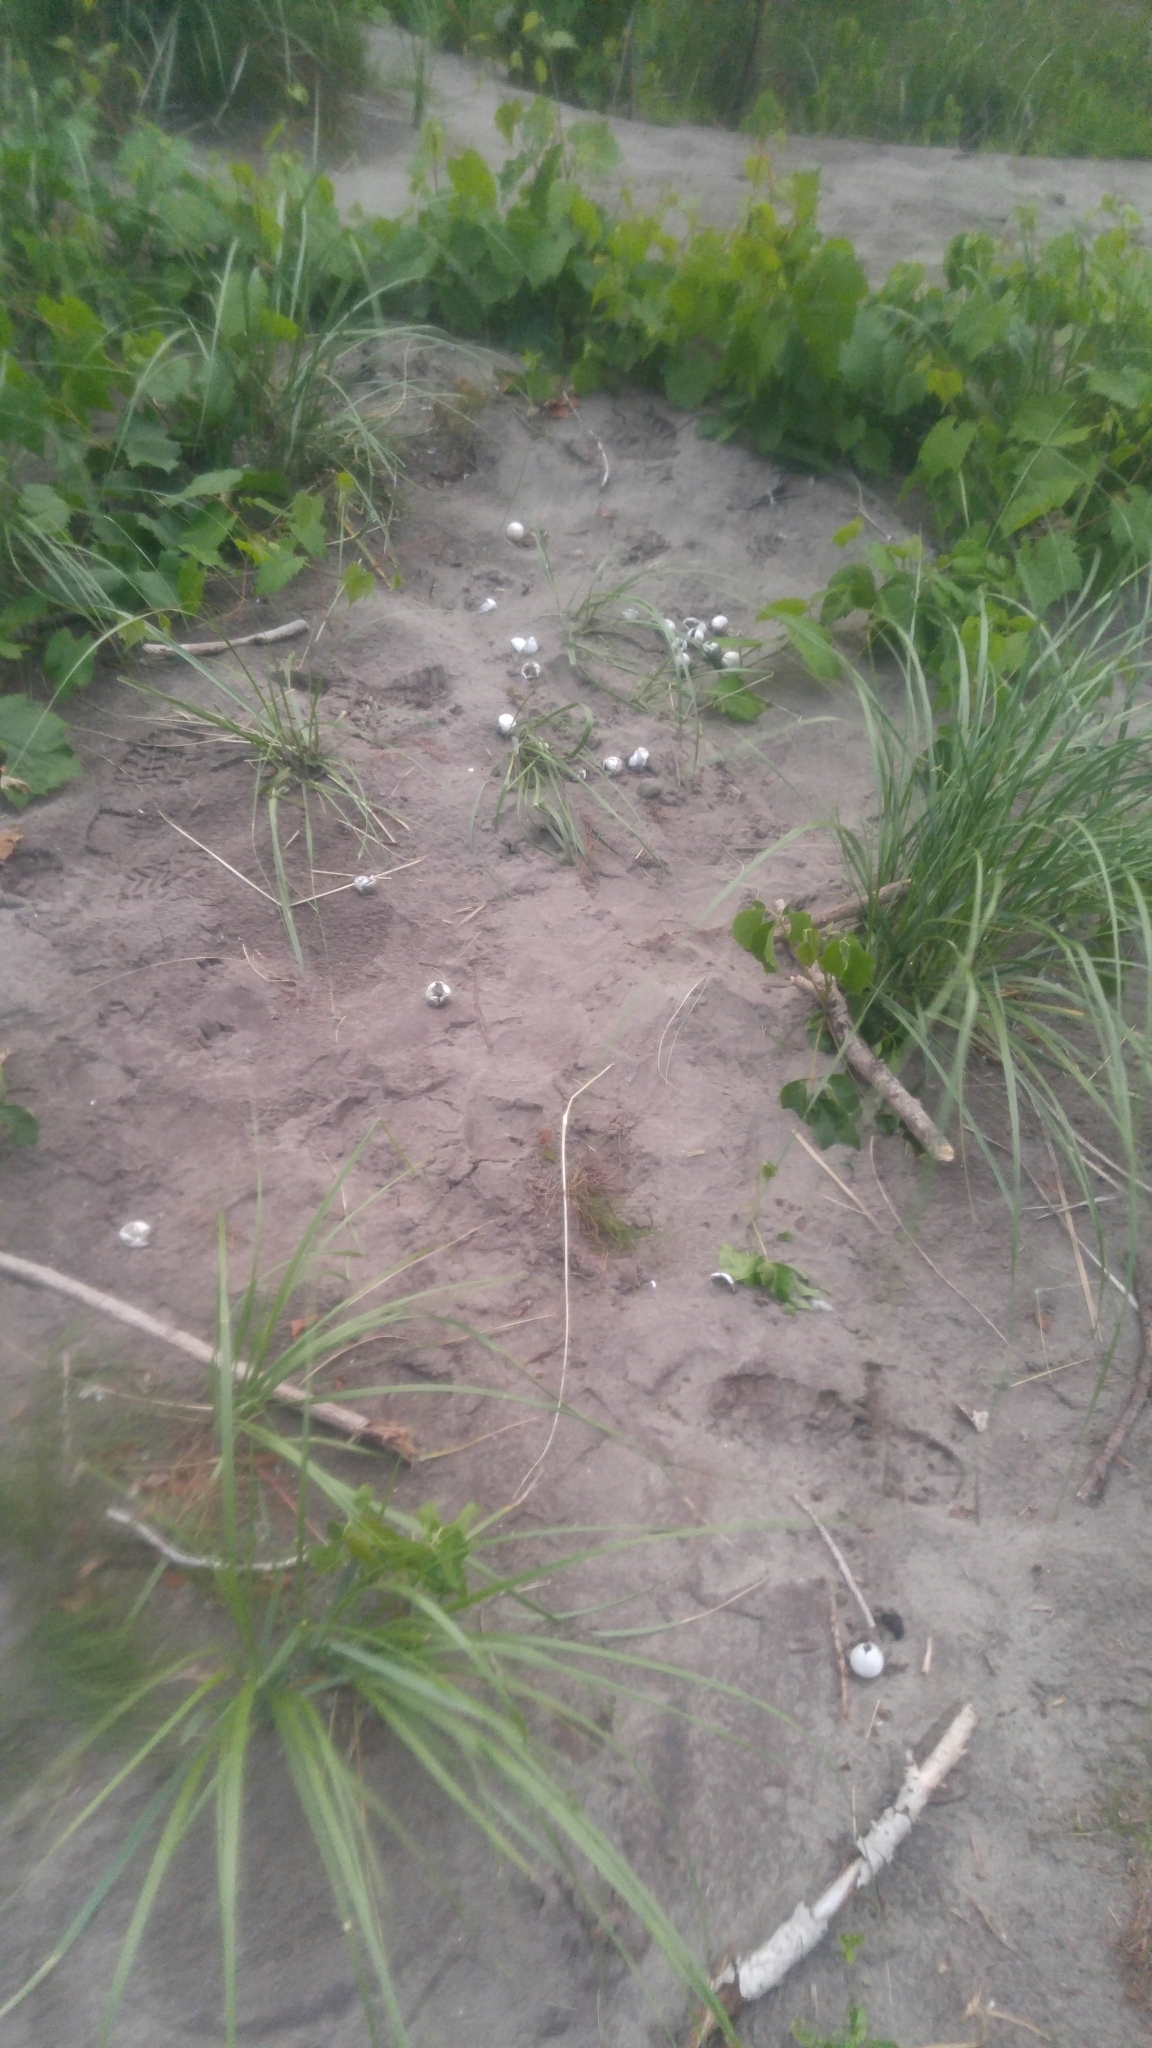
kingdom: Animalia
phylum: Chordata
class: Testudines
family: Chelydridae
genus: Chelydra
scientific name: Chelydra serpentina
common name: Common snapping turtle
